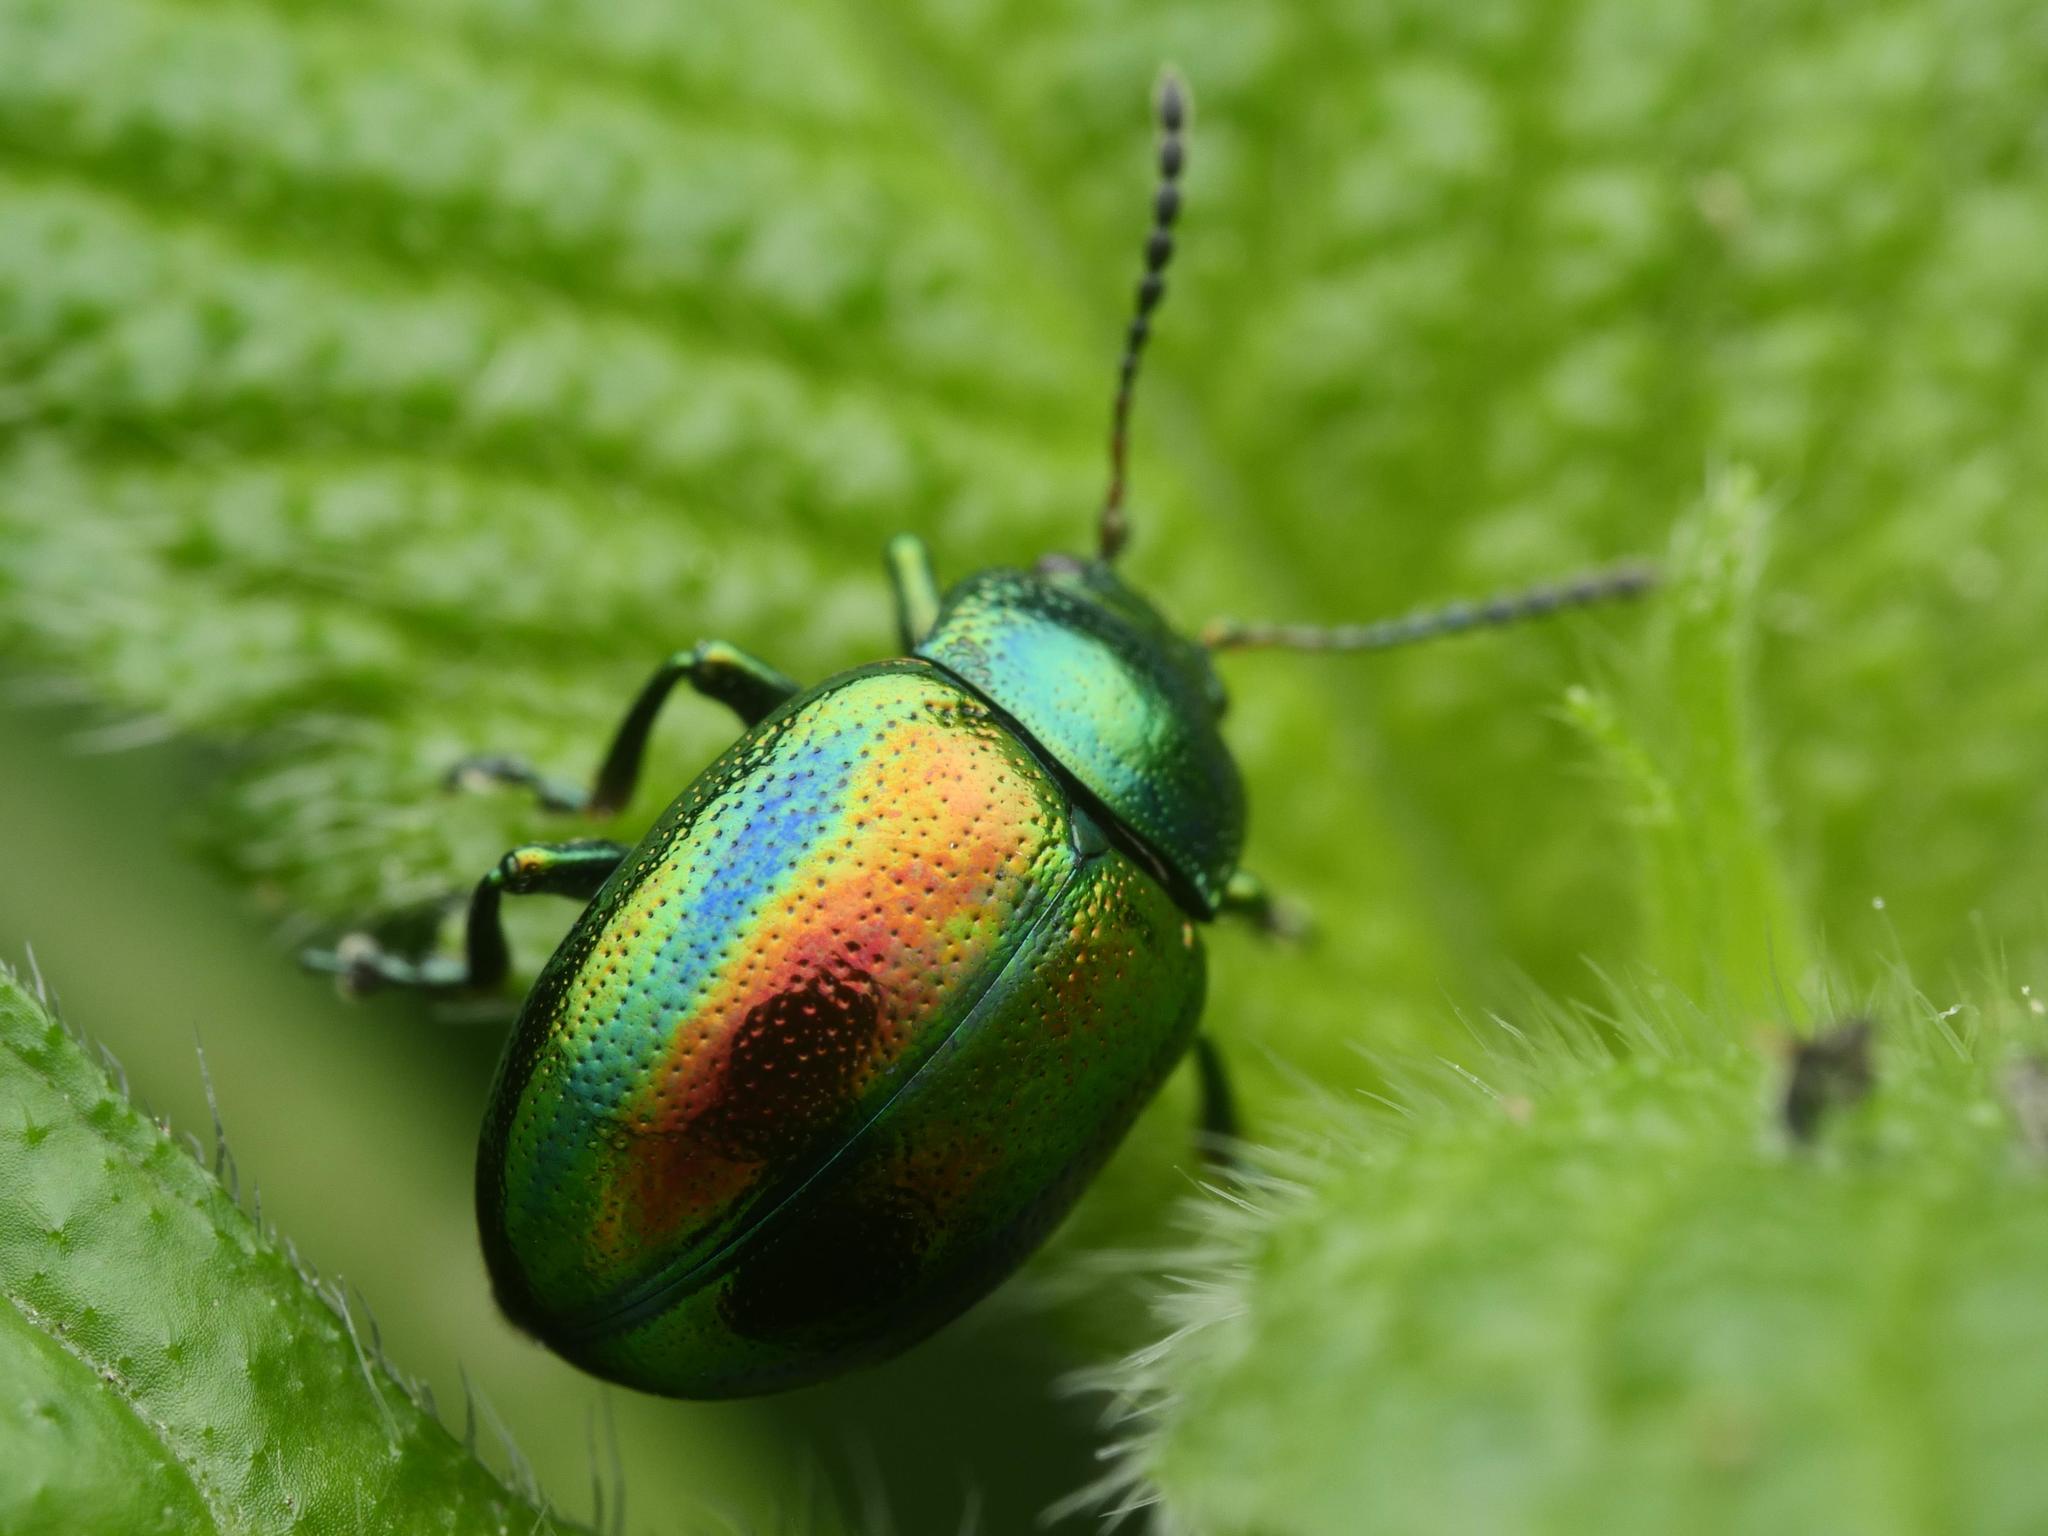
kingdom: Animalia
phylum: Arthropoda
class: Insecta
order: Coleoptera
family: Chrysomelidae
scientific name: Chrysomelidae
